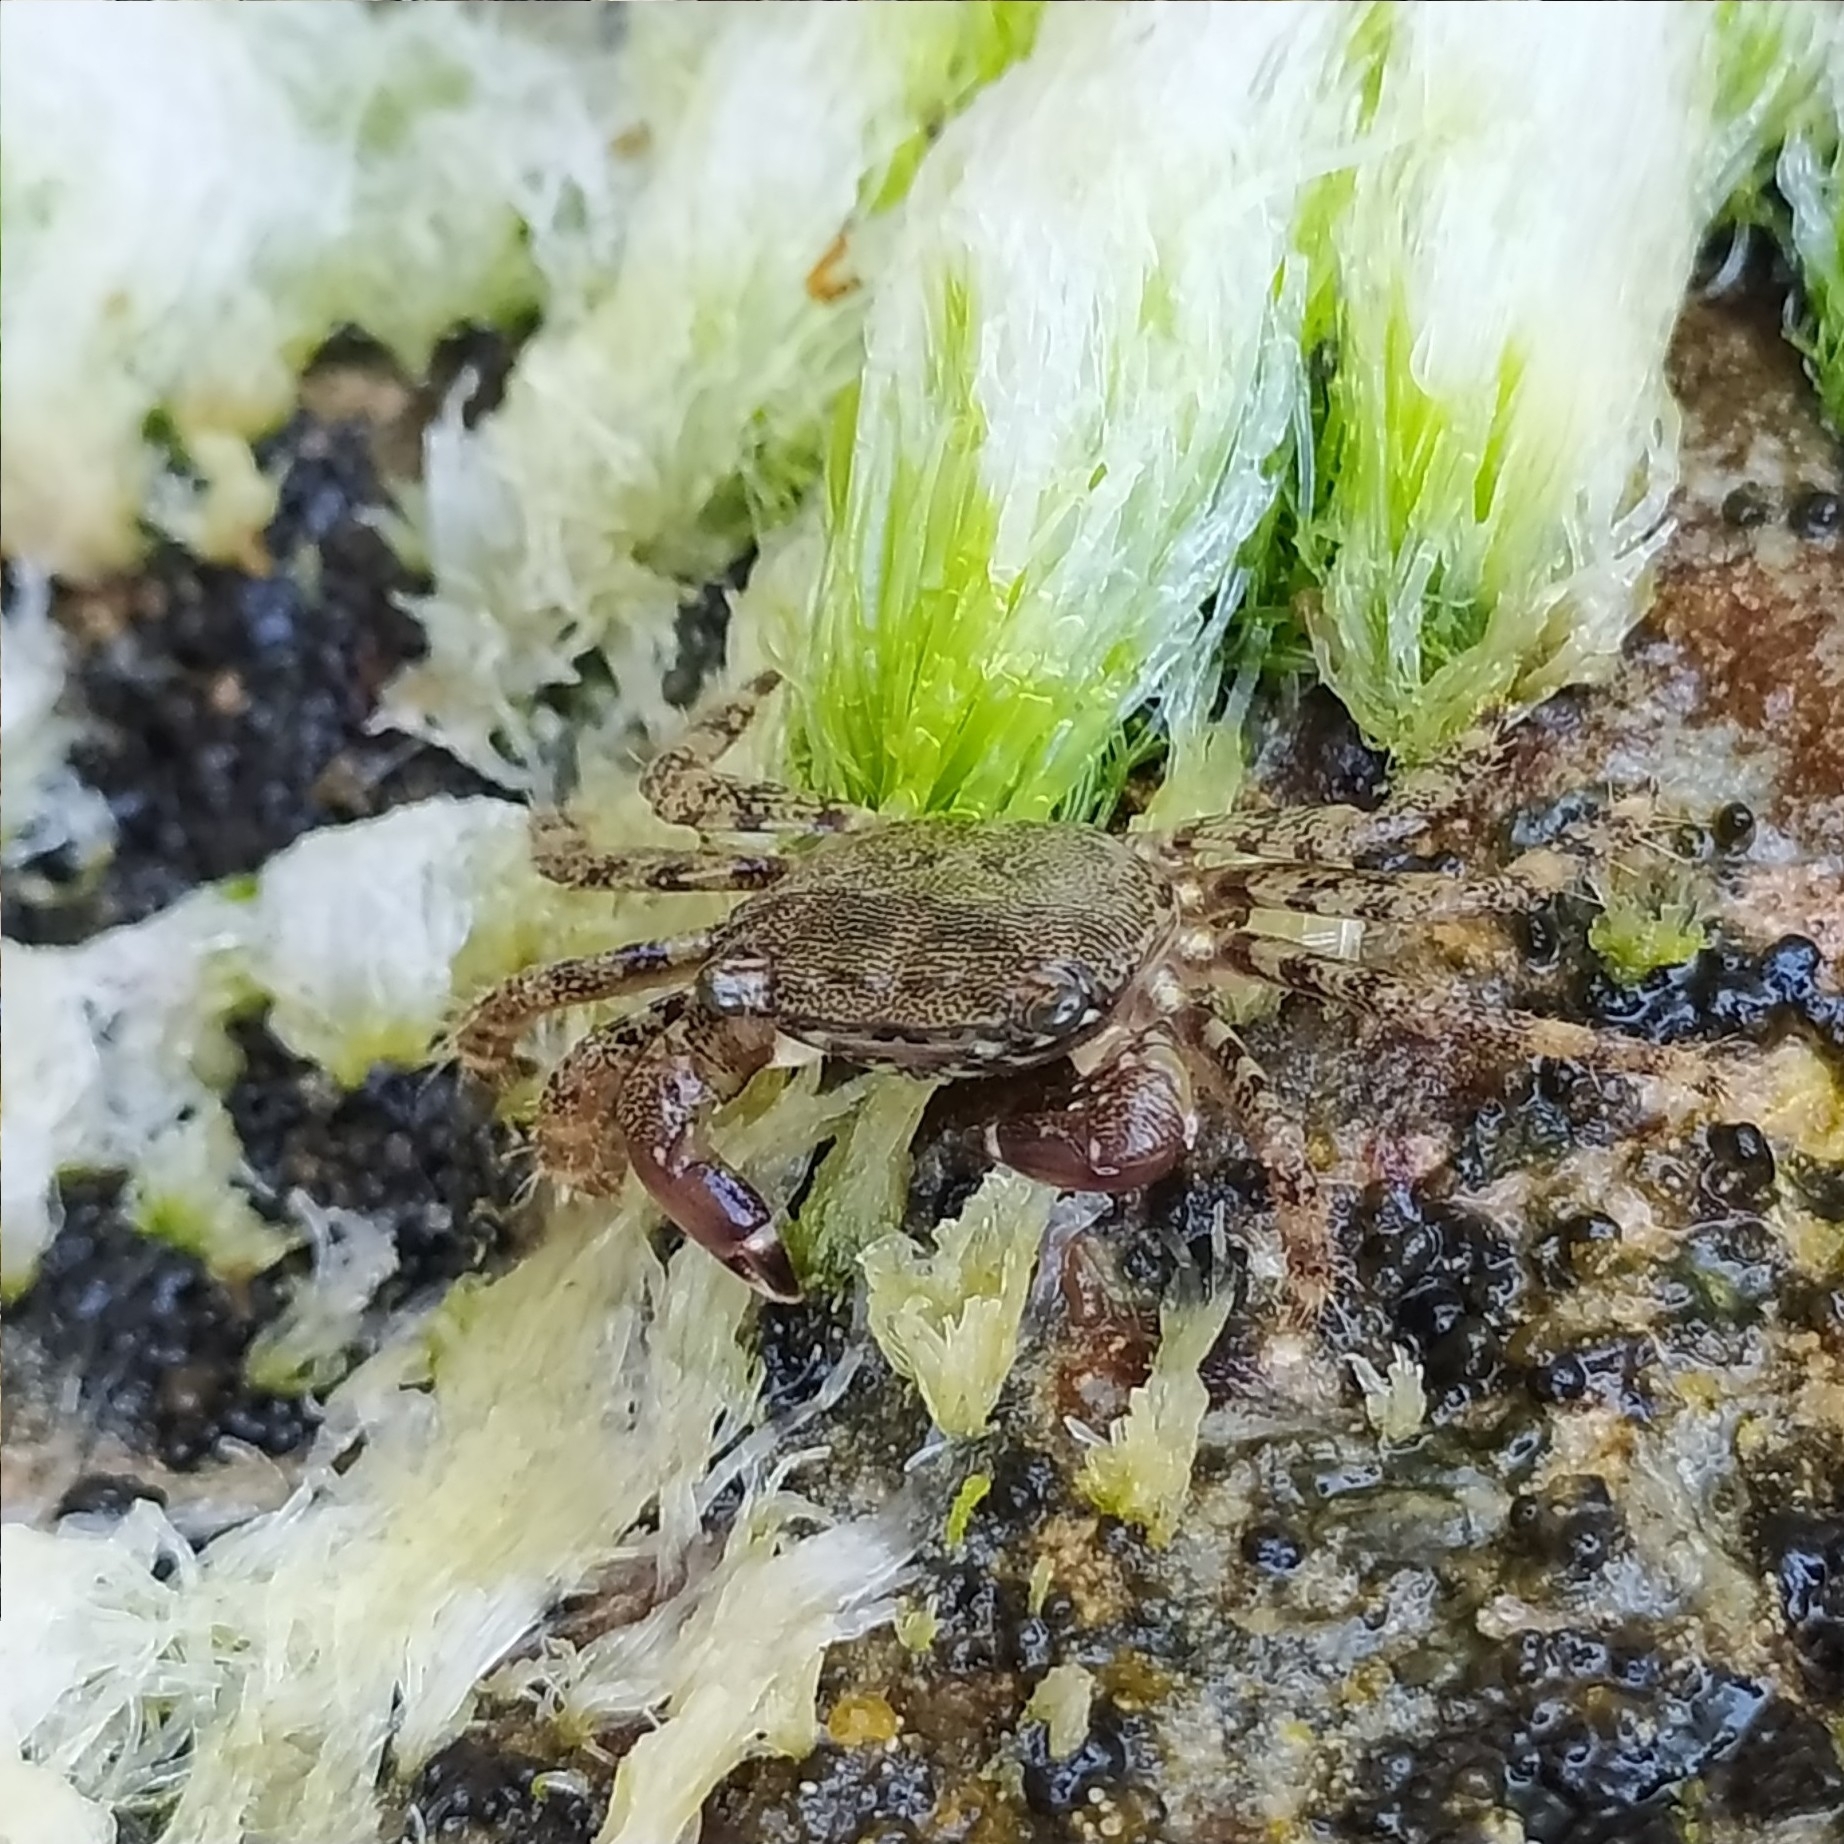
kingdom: Animalia
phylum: Arthropoda
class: Malacostraca
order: Decapoda
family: Grapsidae
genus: Pachygrapsus
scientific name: Pachygrapsus marmoratus
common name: Marbled rock crab
